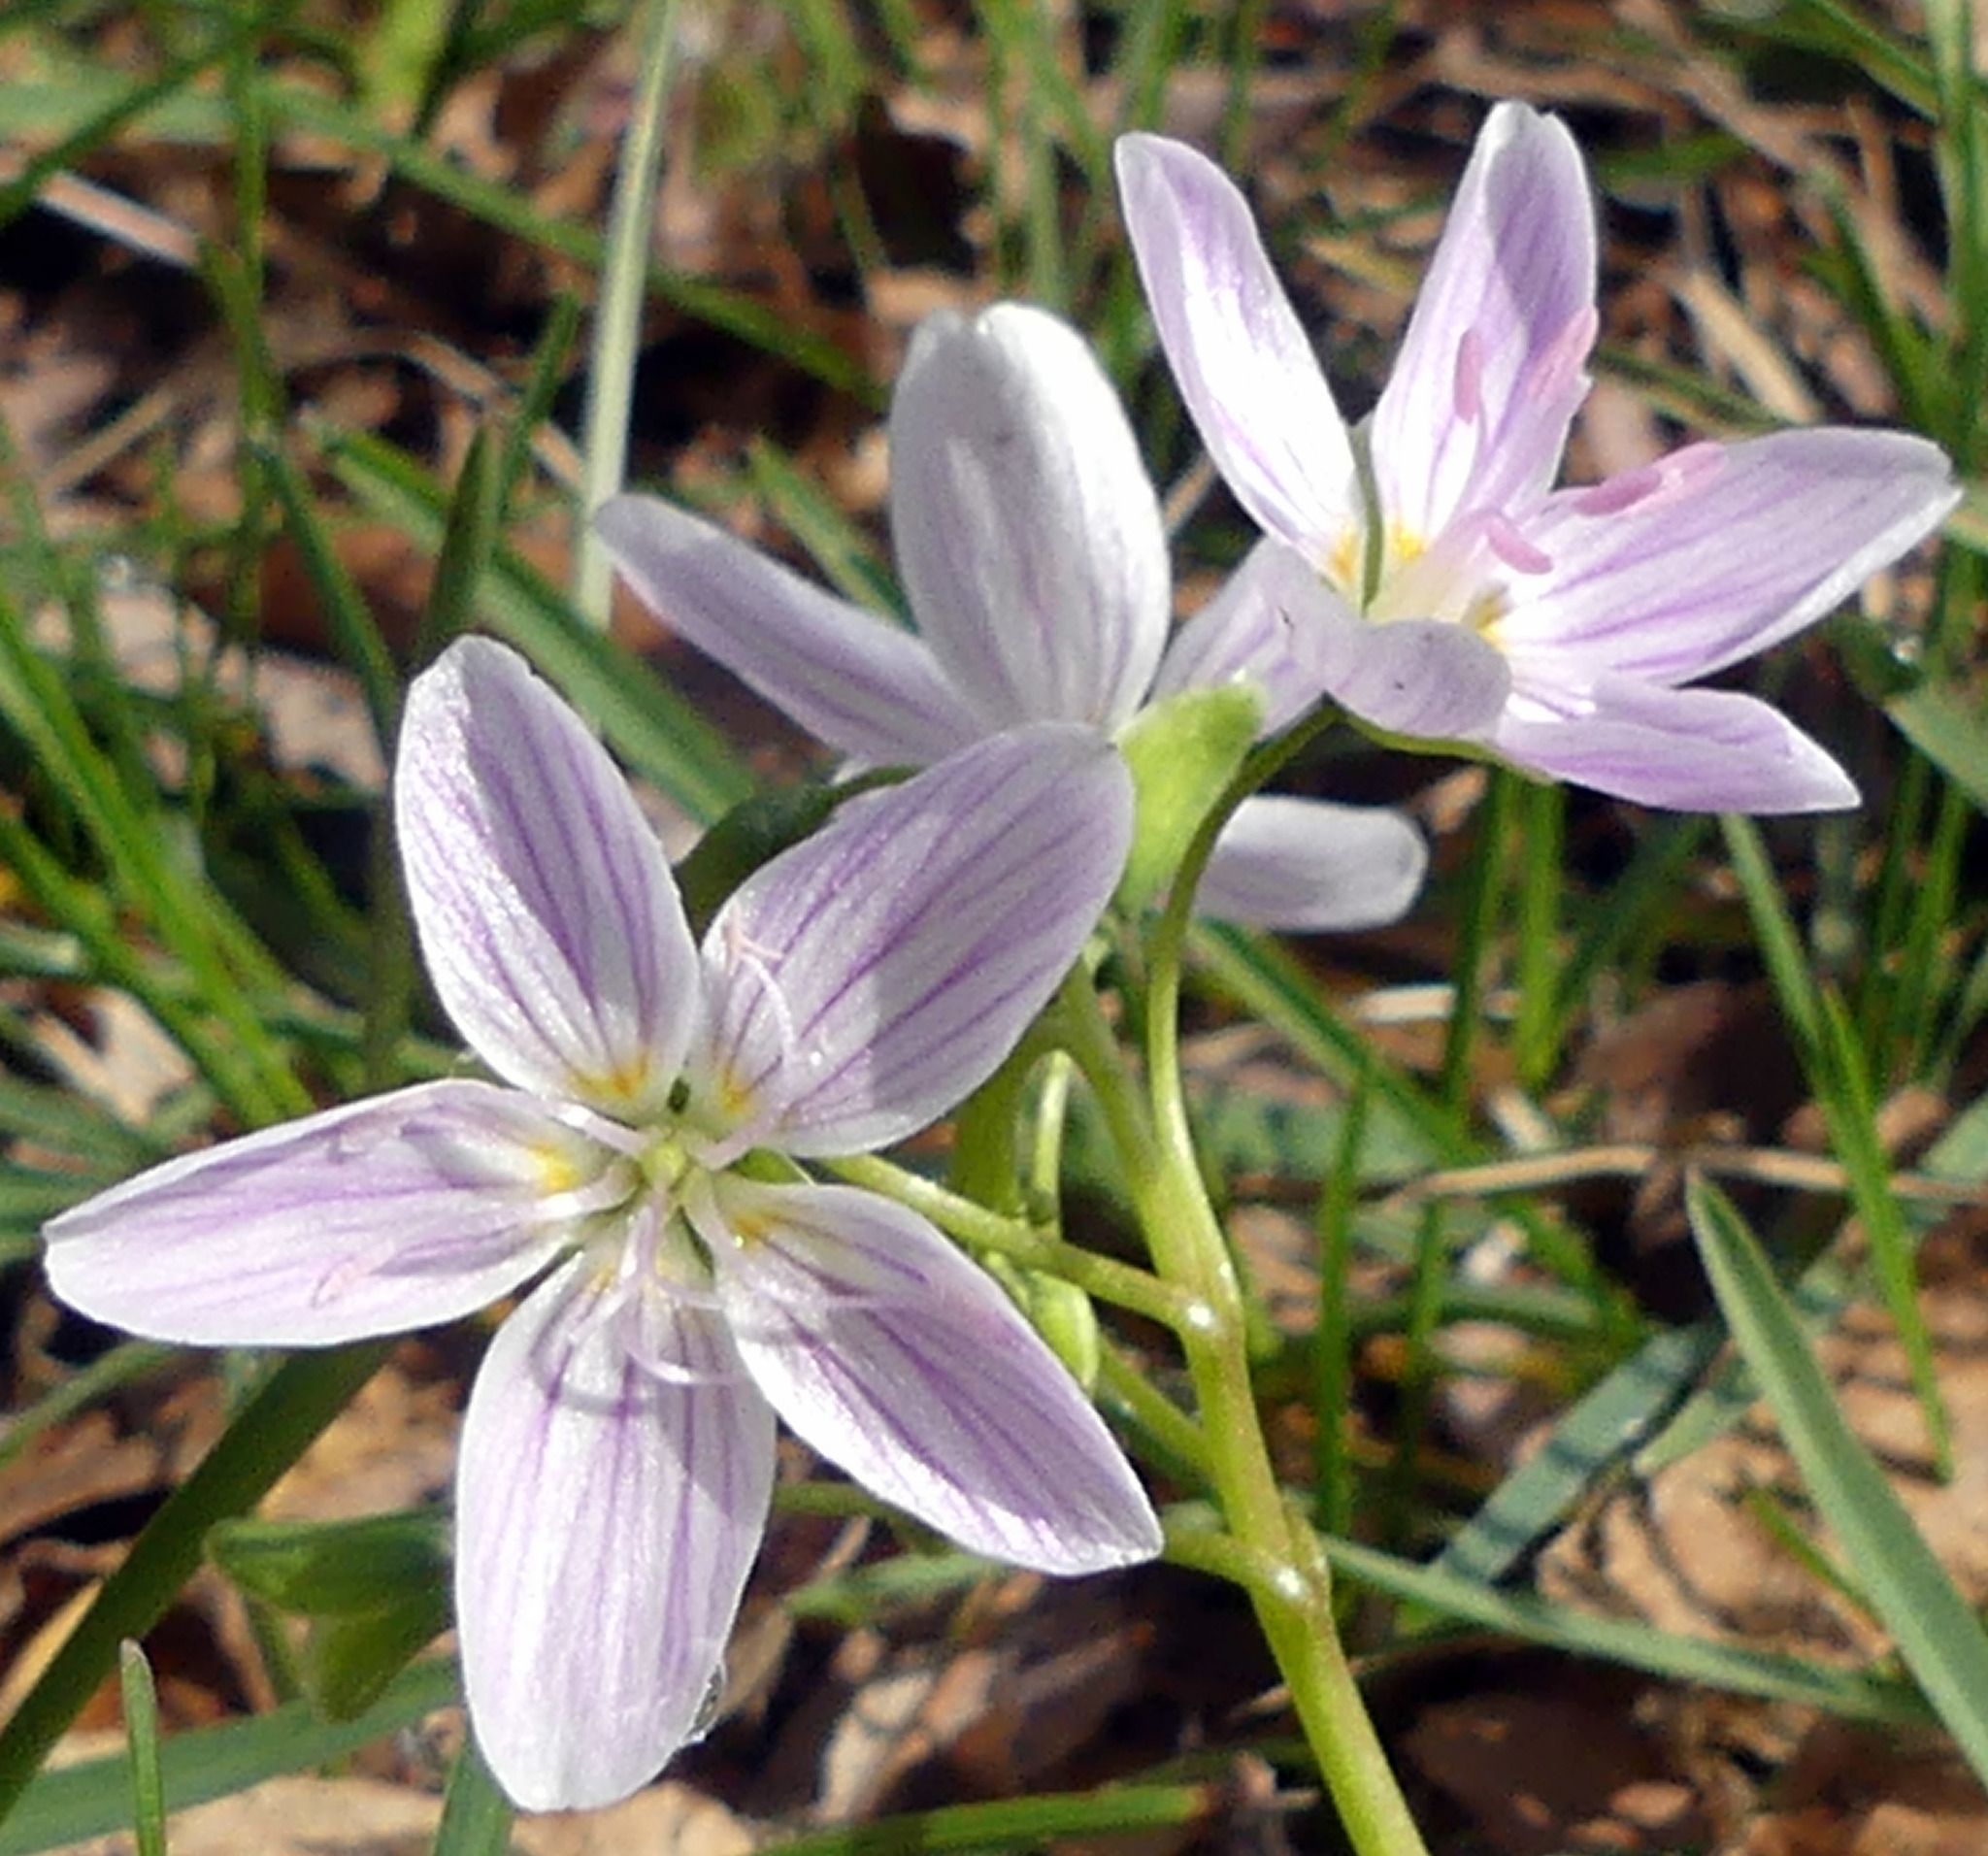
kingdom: Plantae
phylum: Tracheophyta
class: Magnoliopsida
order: Caryophyllales
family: Montiaceae
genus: Claytonia
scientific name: Claytonia virginica
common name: Virginia springbeauty
